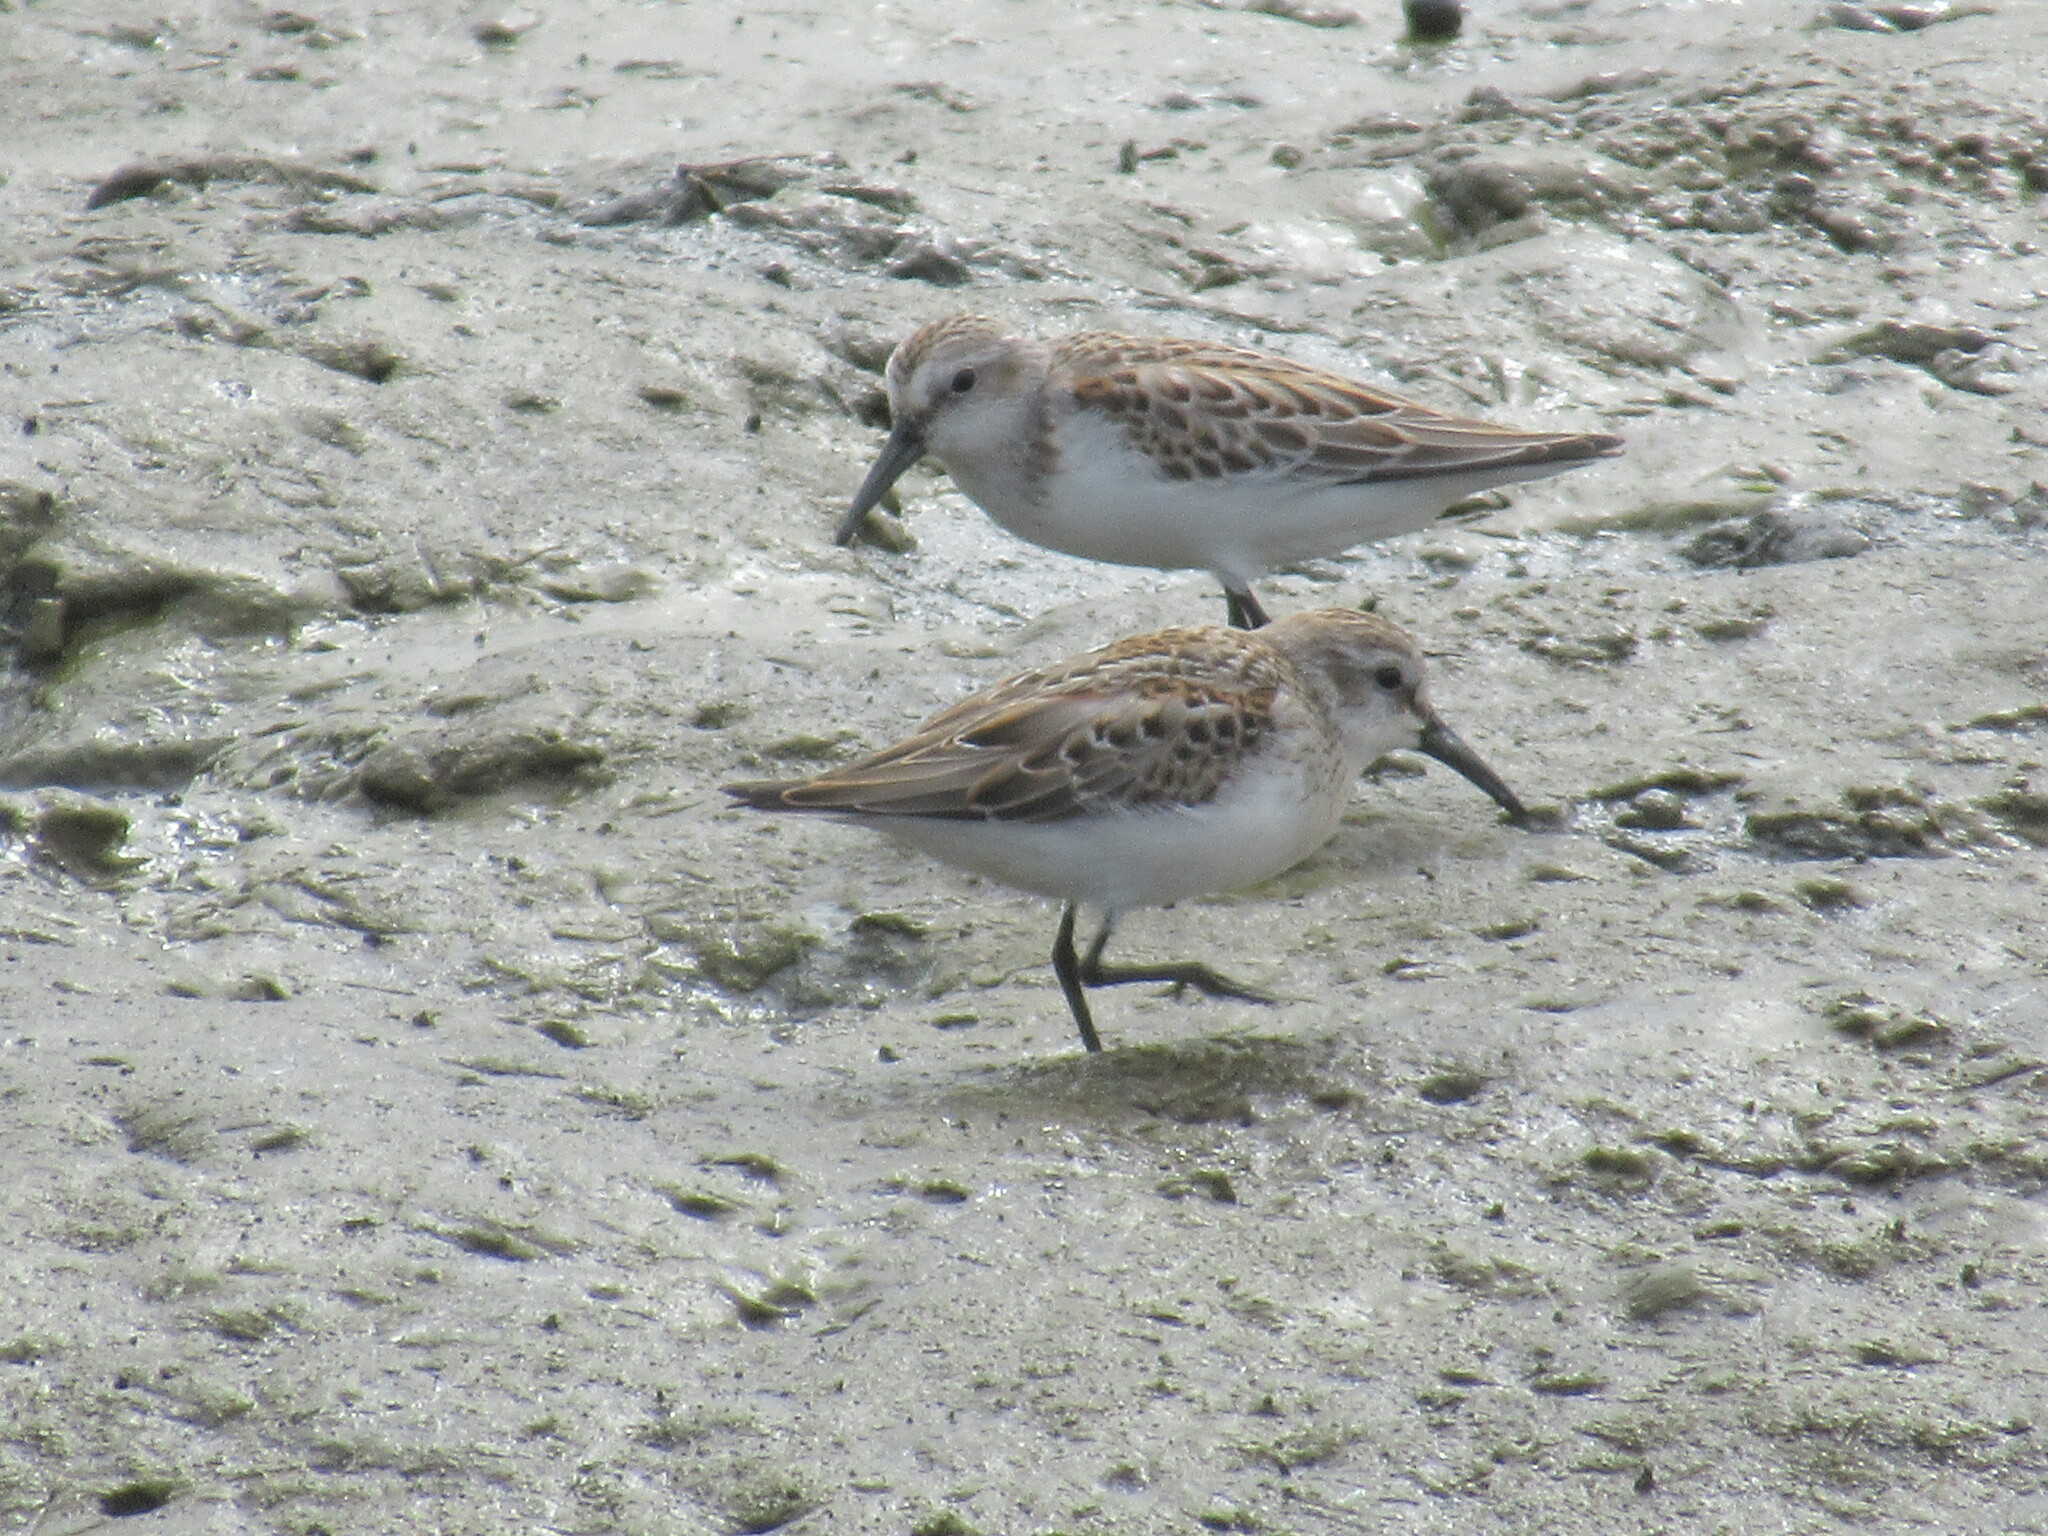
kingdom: Animalia
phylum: Chordata
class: Aves
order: Charadriiformes
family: Scolopacidae
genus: Calidris
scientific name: Calidris mauri
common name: Western sandpiper
